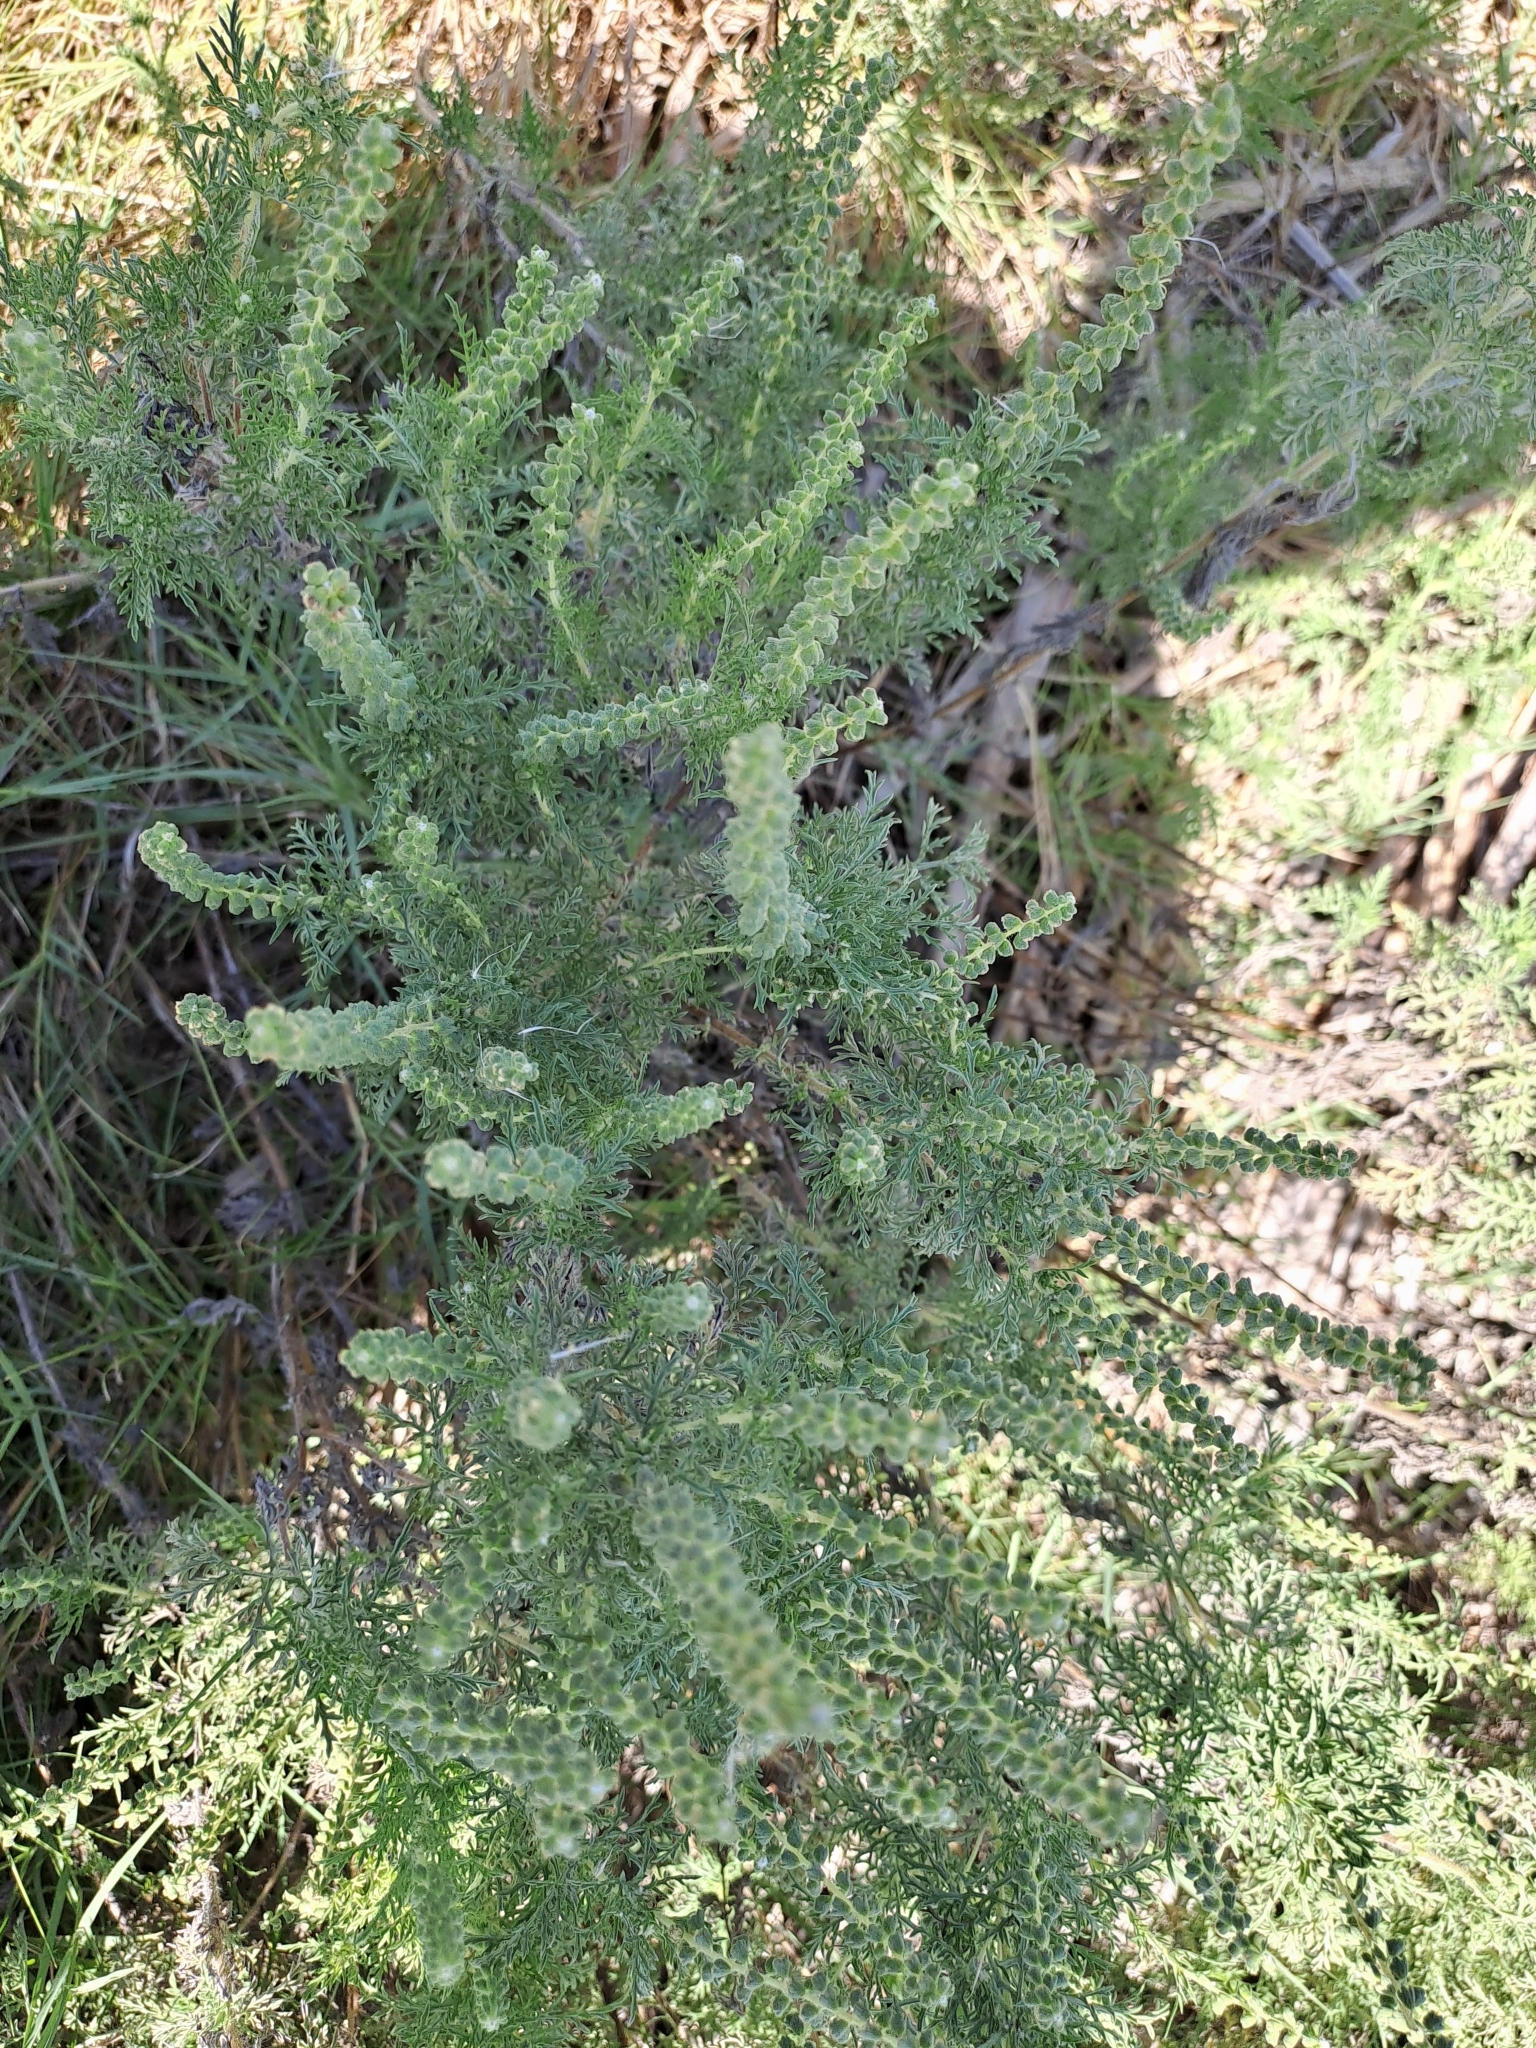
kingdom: Plantae
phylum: Tracheophyta
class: Magnoliopsida
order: Asterales
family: Asteraceae
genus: Ambrosia
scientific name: Ambrosia tenuifolia
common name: Lacy ambrosia
